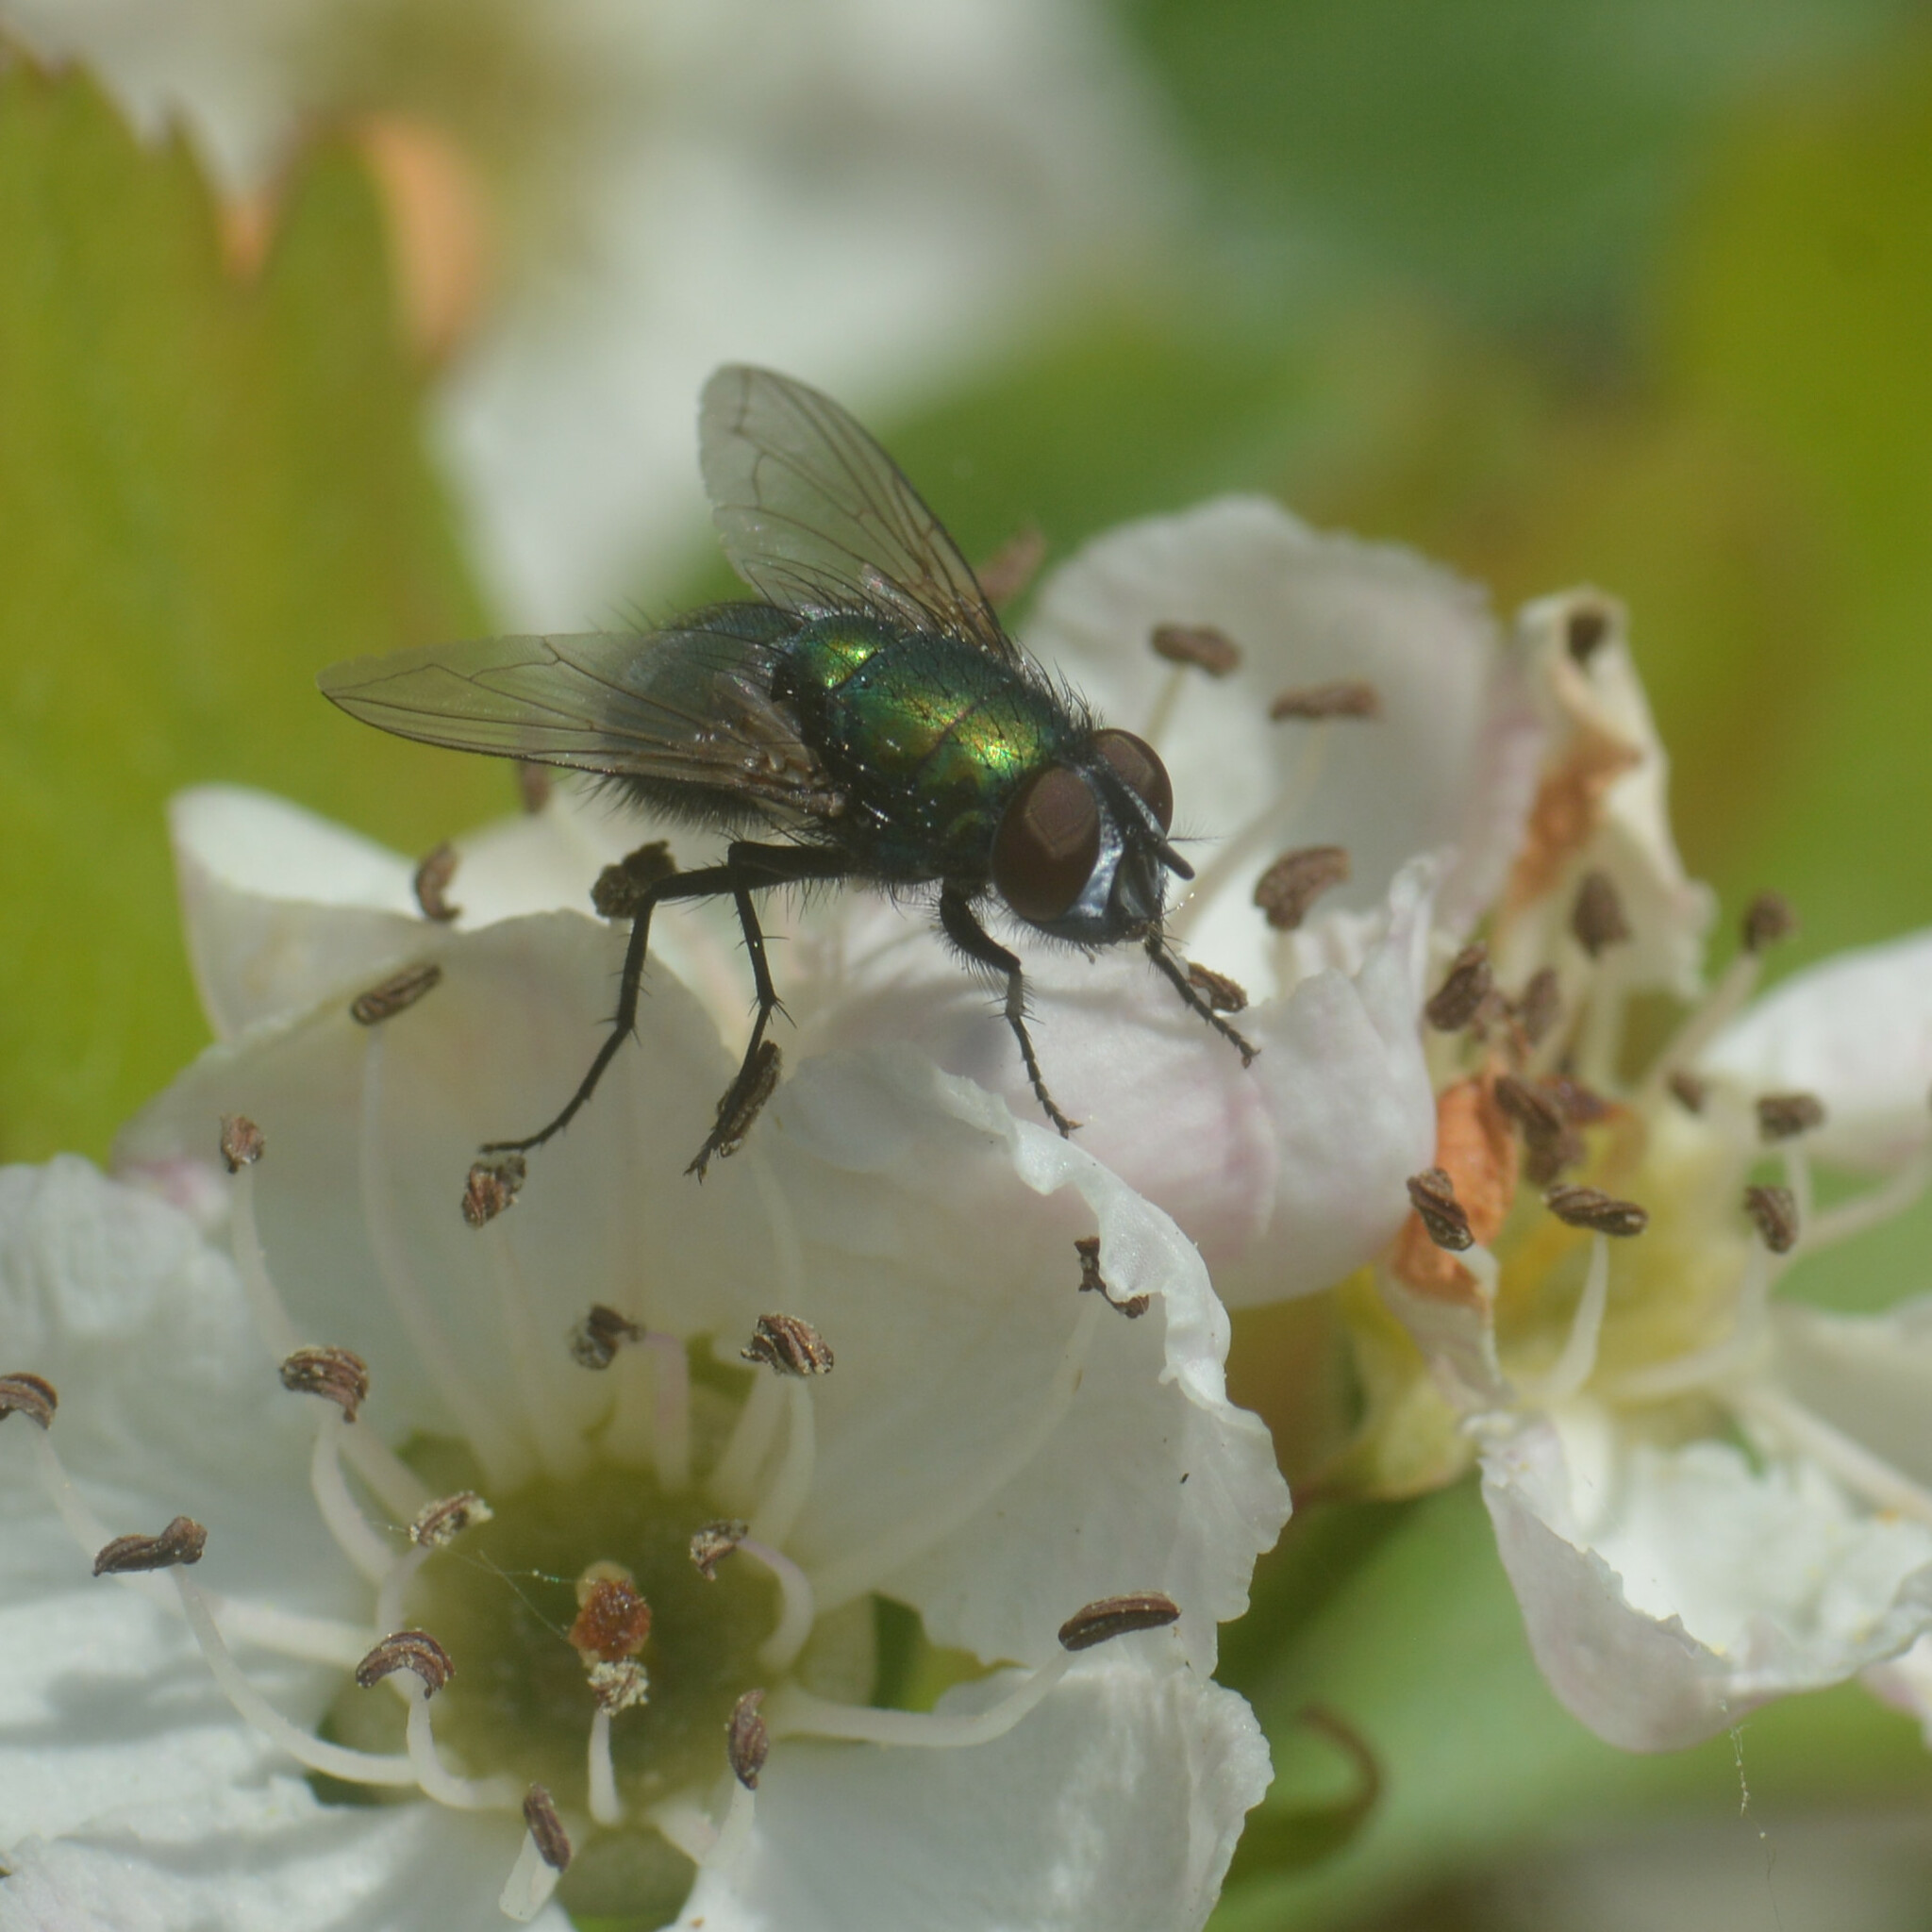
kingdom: Animalia
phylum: Arthropoda
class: Insecta
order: Diptera
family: Calliphoridae
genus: Lucilia
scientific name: Lucilia sericata
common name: Blow fly
